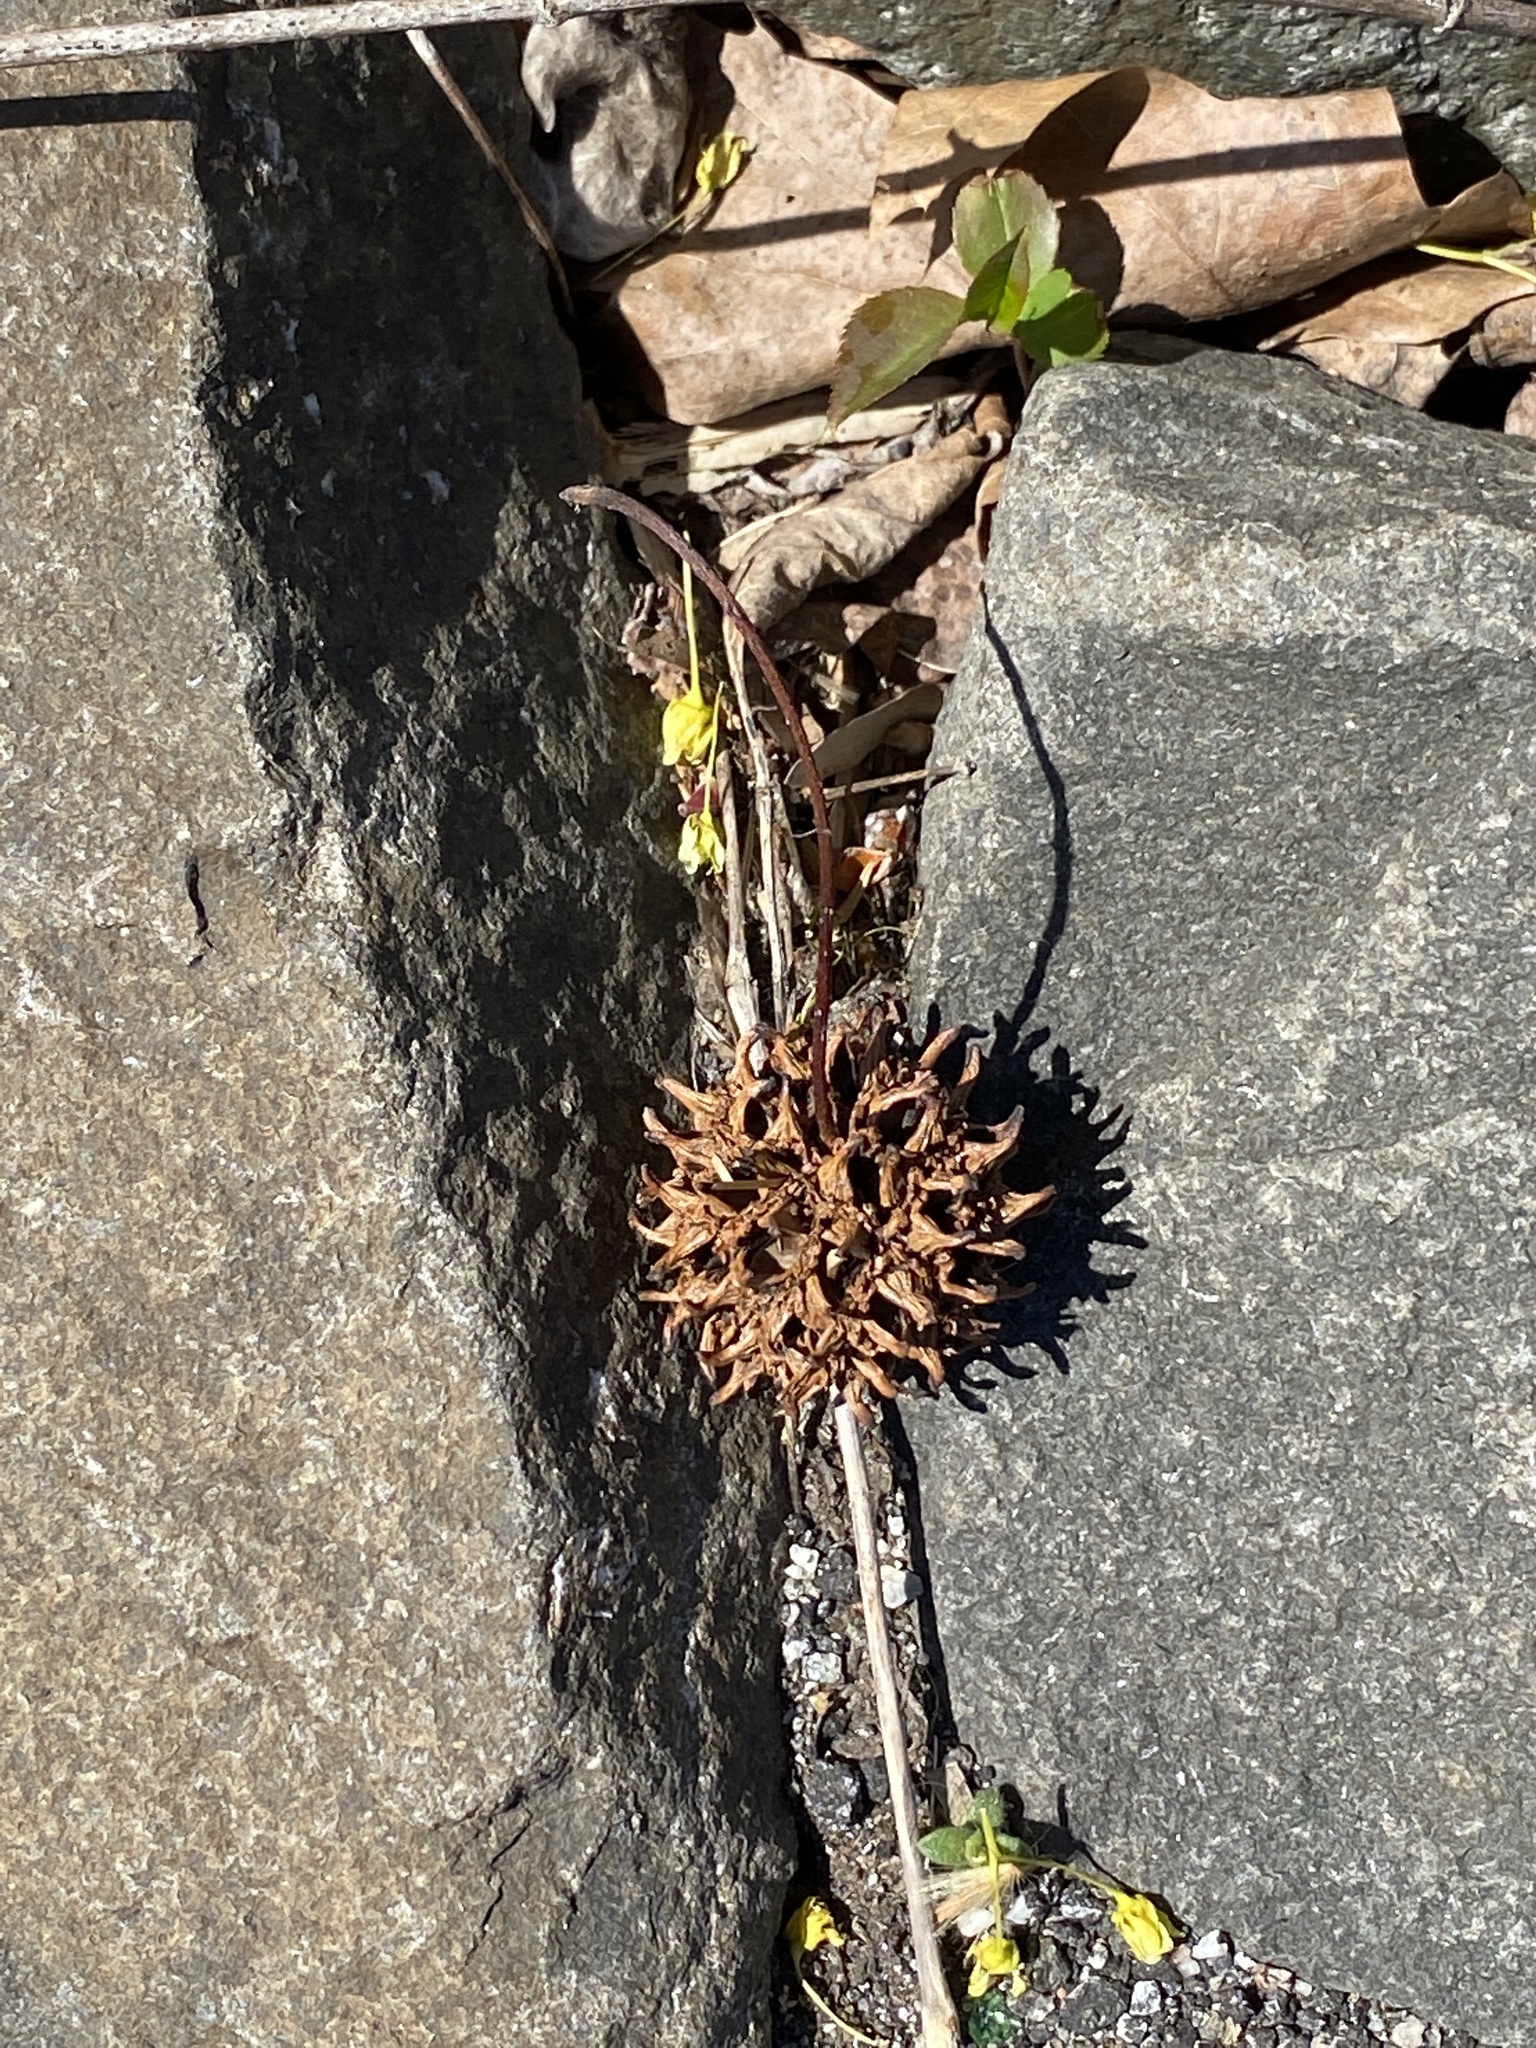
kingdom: Plantae
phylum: Tracheophyta
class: Magnoliopsida
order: Saxifragales
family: Altingiaceae
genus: Liquidambar
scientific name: Liquidambar styraciflua
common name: Sweet gum
